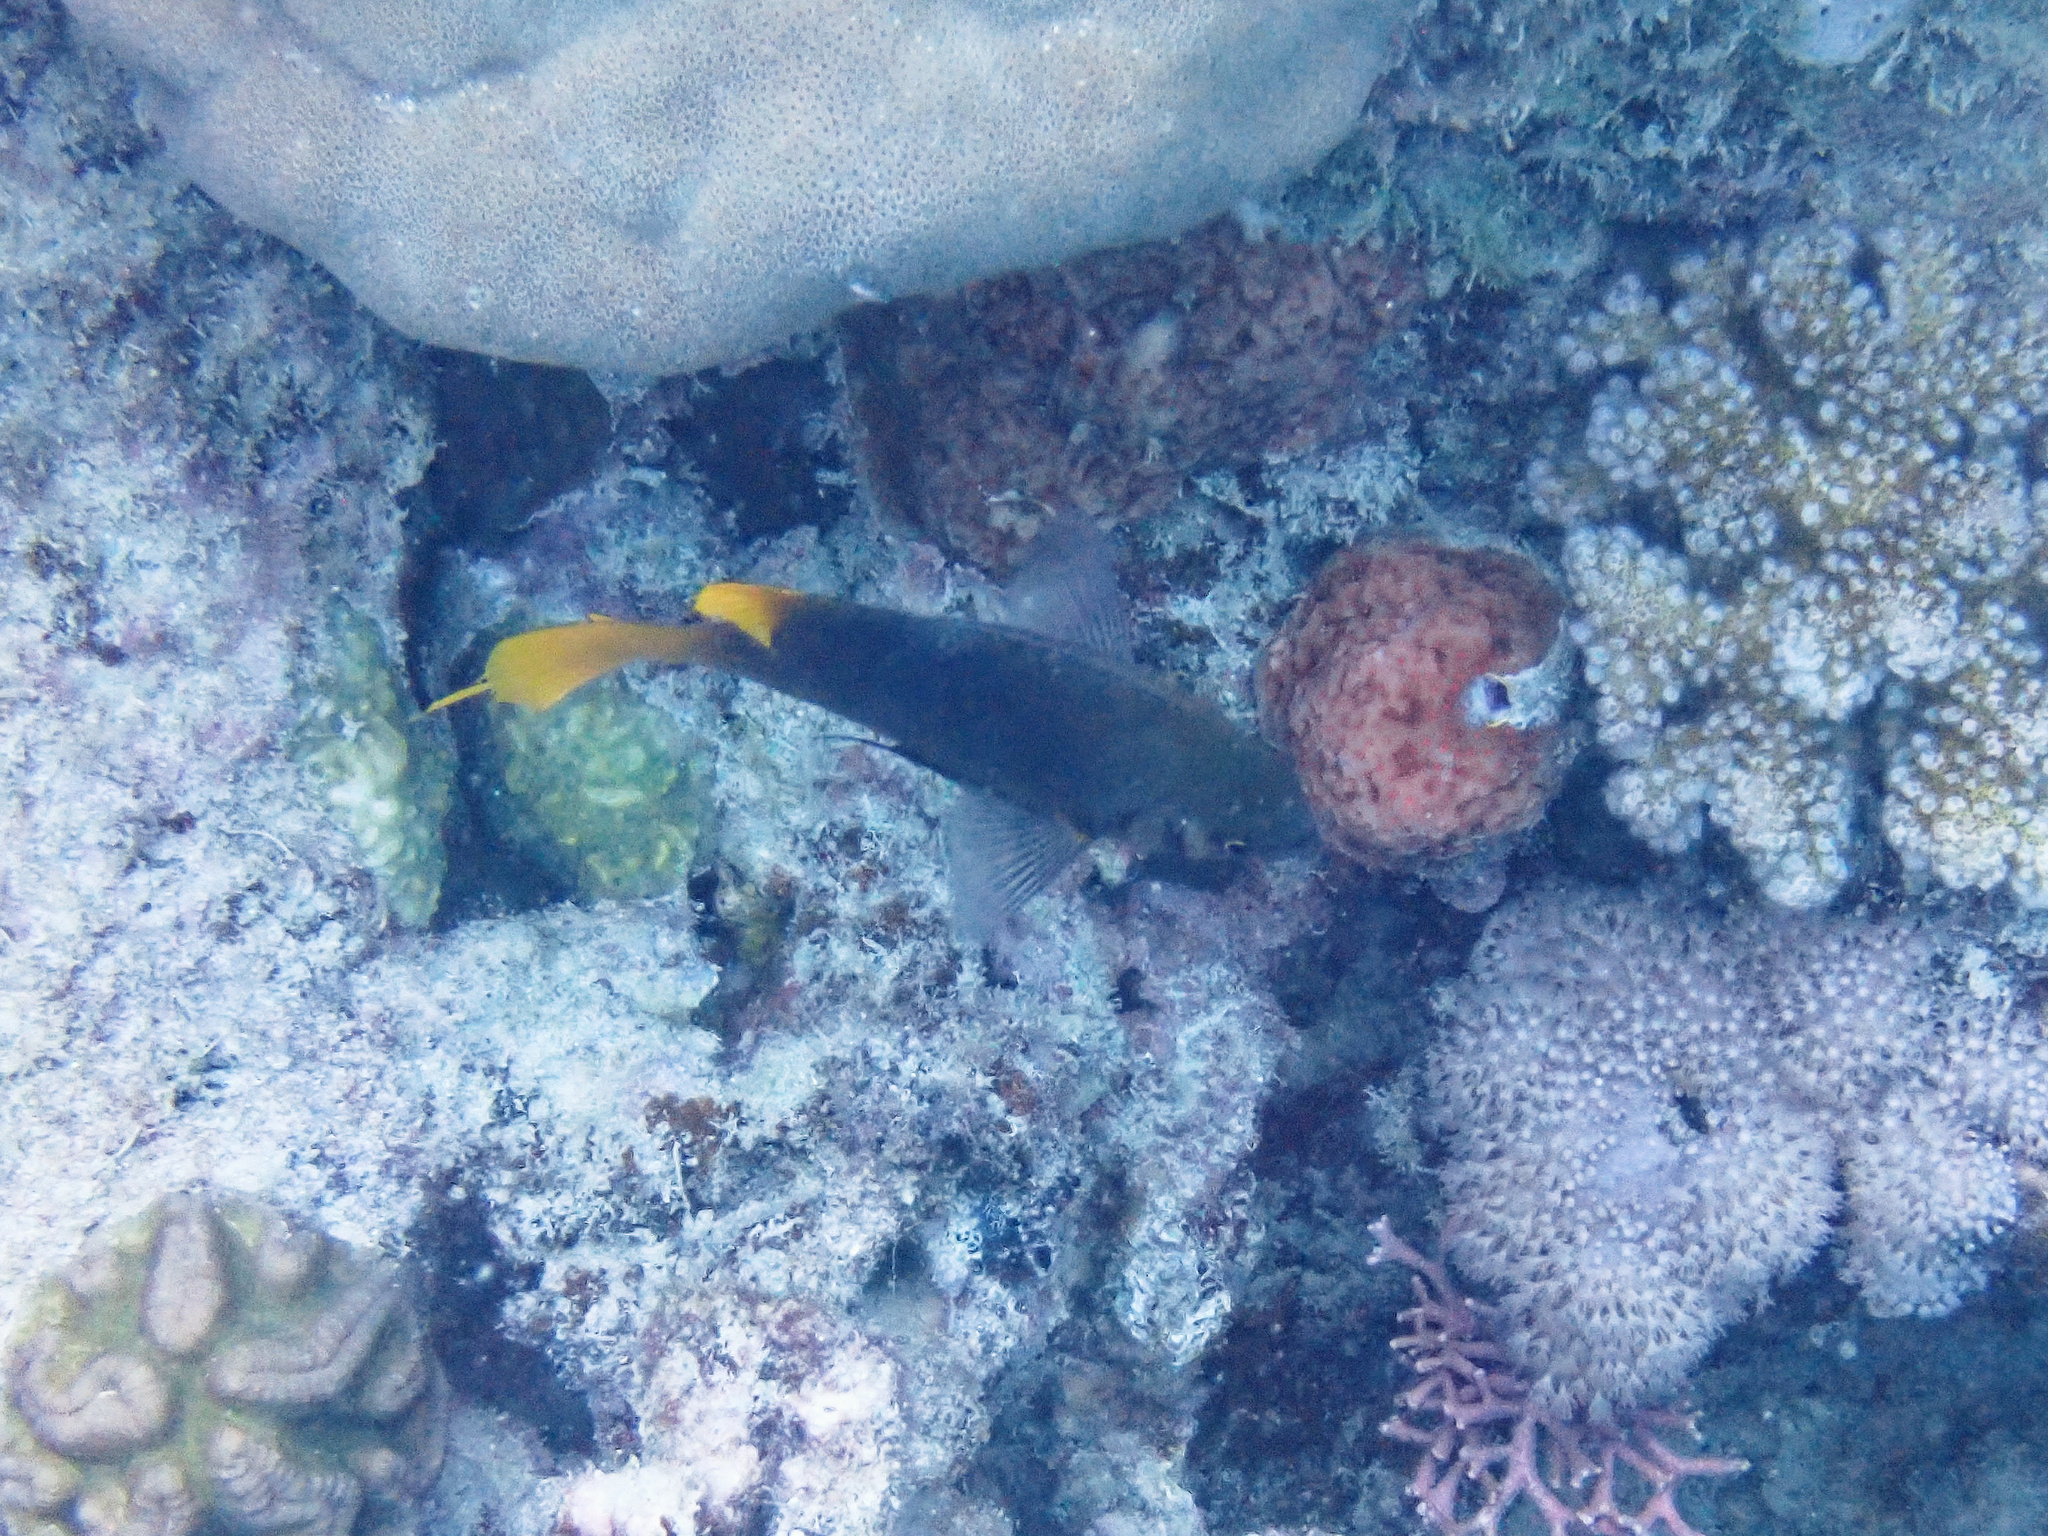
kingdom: Animalia
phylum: Chordata
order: Perciformes
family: Pomacentridae
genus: Neoglyphidodon
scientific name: Neoglyphidodon nigroris
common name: Behn's damsel
